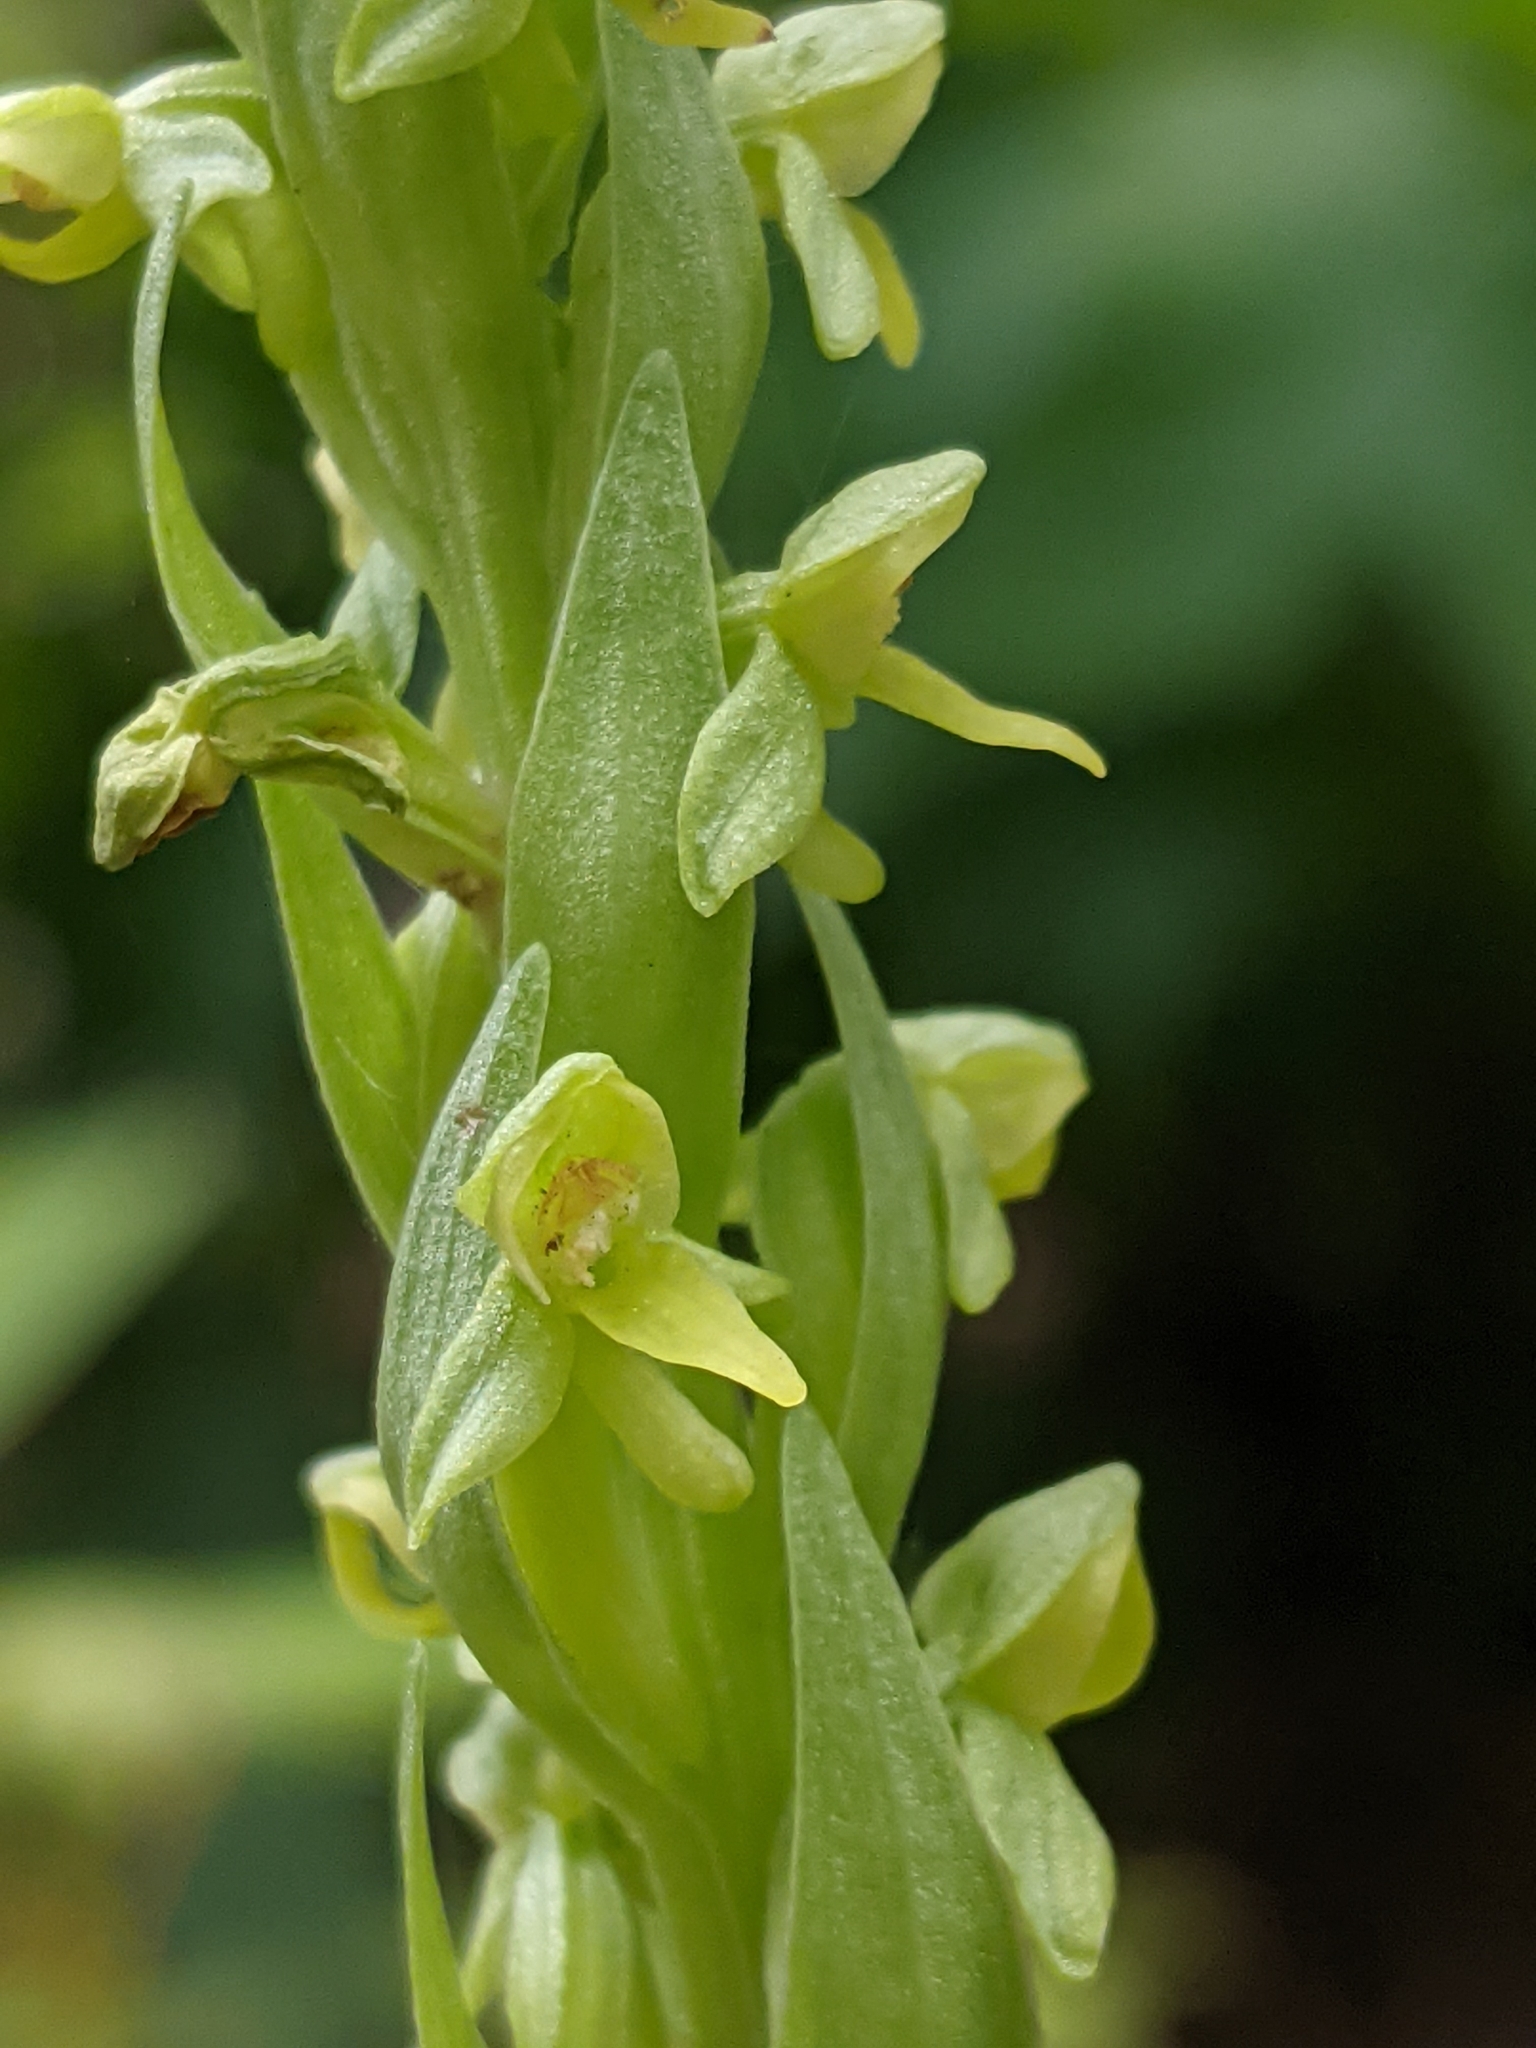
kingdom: Plantae
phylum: Tracheophyta
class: Liliopsida
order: Asparagales
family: Orchidaceae
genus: Platanthera
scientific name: Platanthera aquilonis
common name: Northern green orchid
